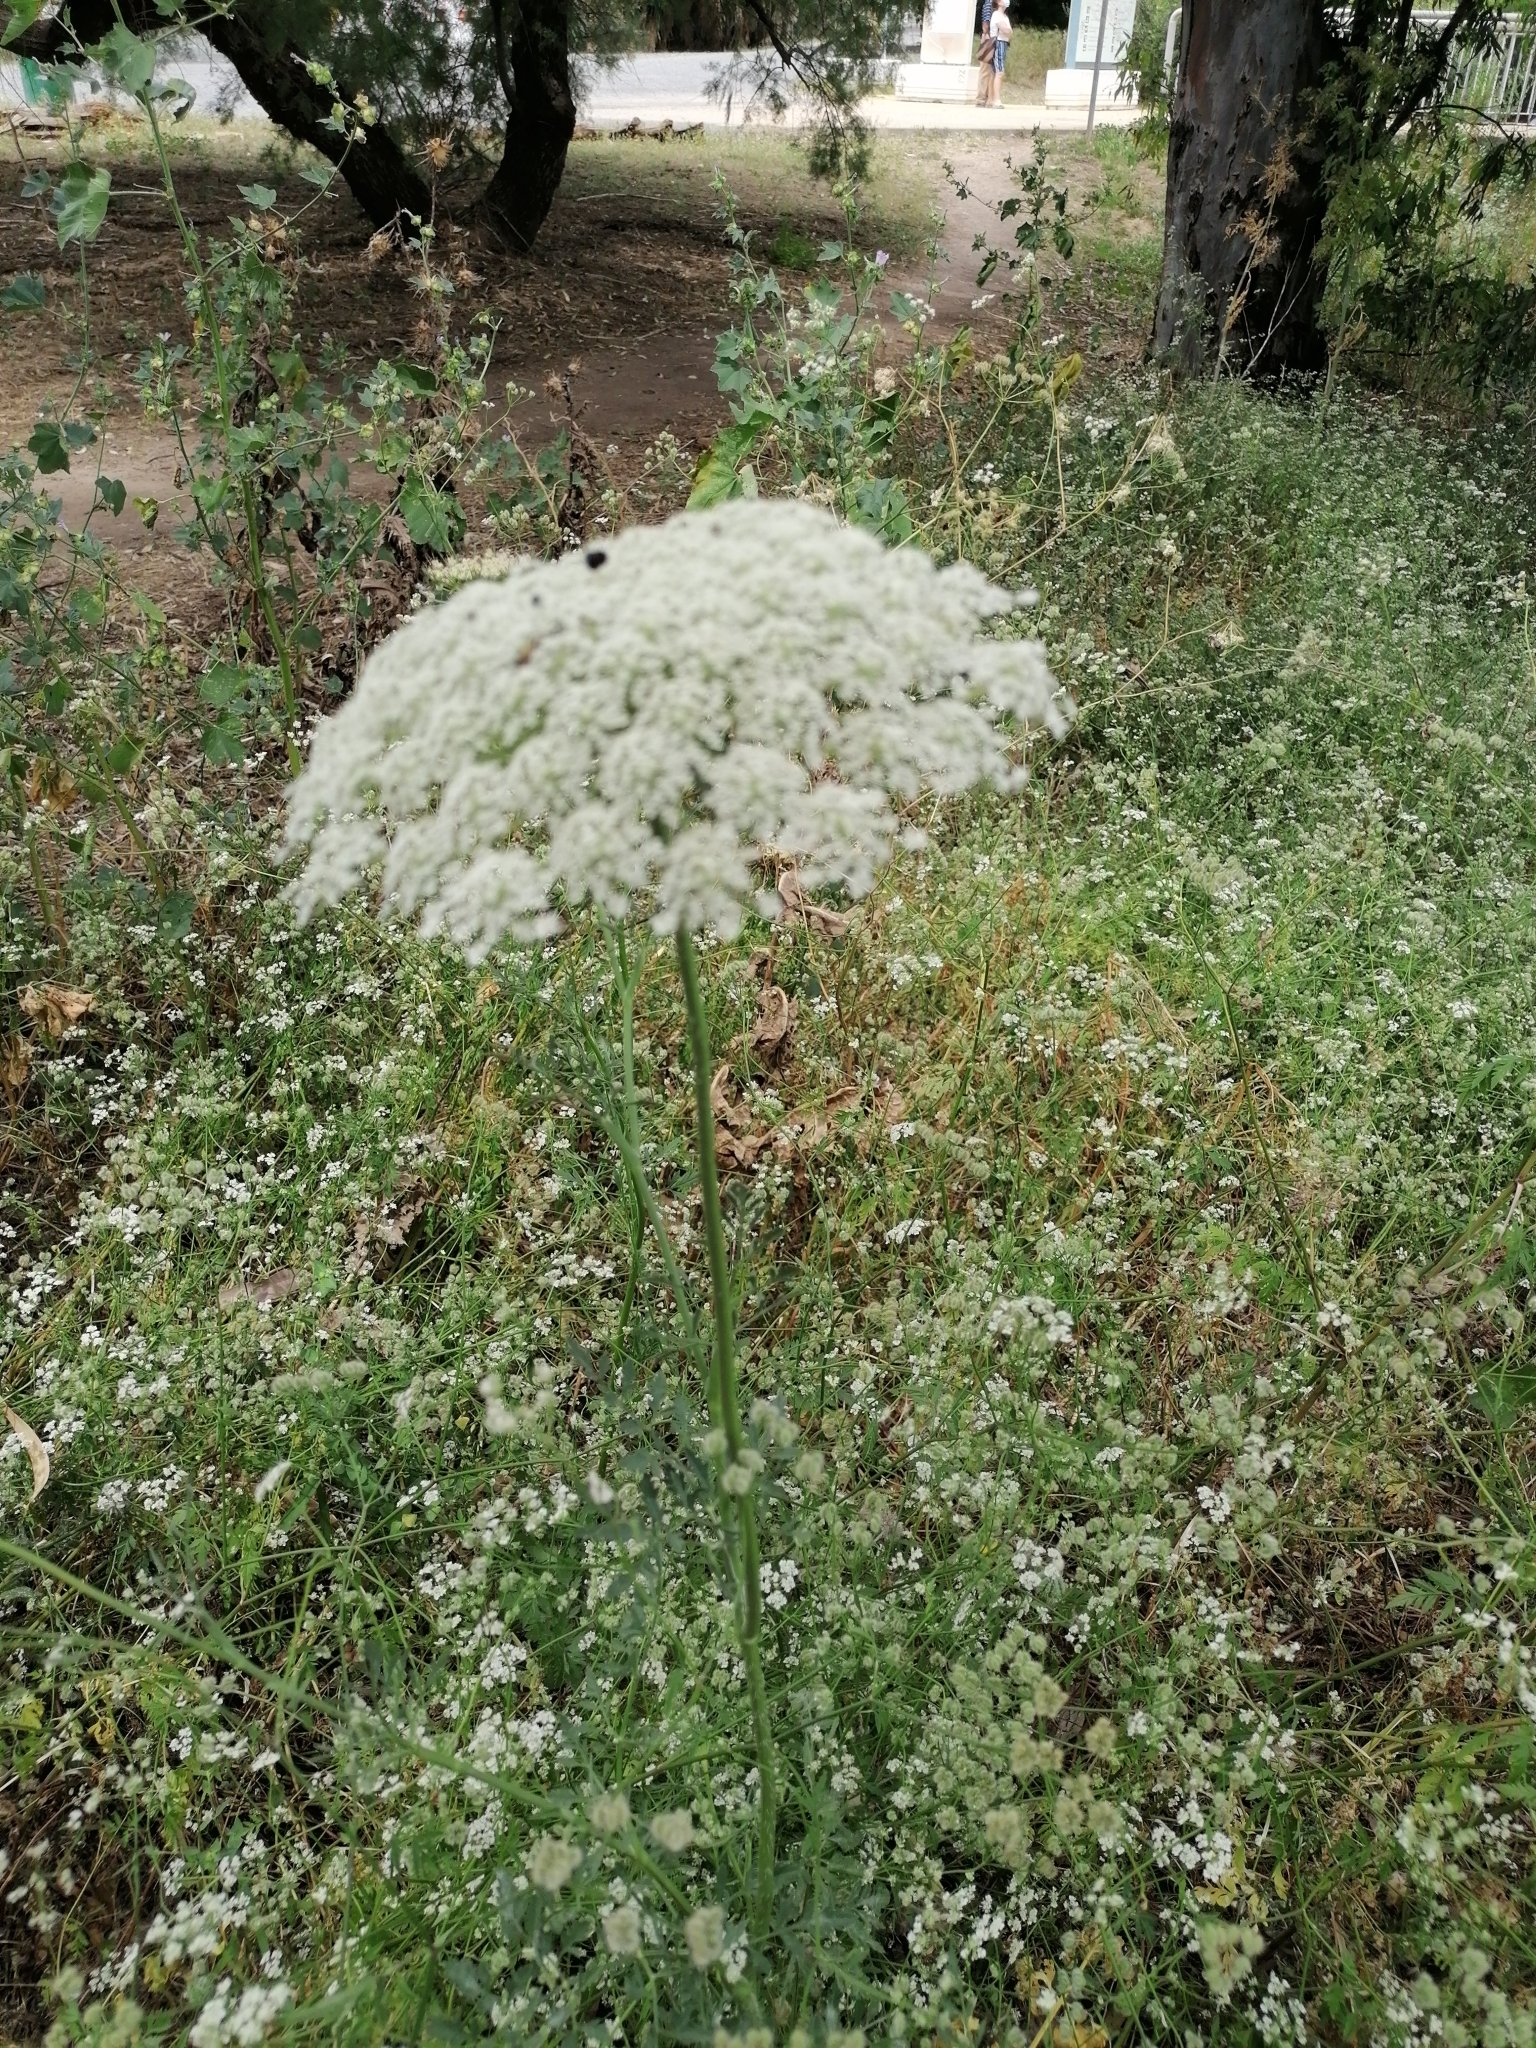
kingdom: Plantae
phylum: Tracheophyta
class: Magnoliopsida
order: Apiales
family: Apiaceae
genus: Daucus
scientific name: Daucus carota
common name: Wild carrot
